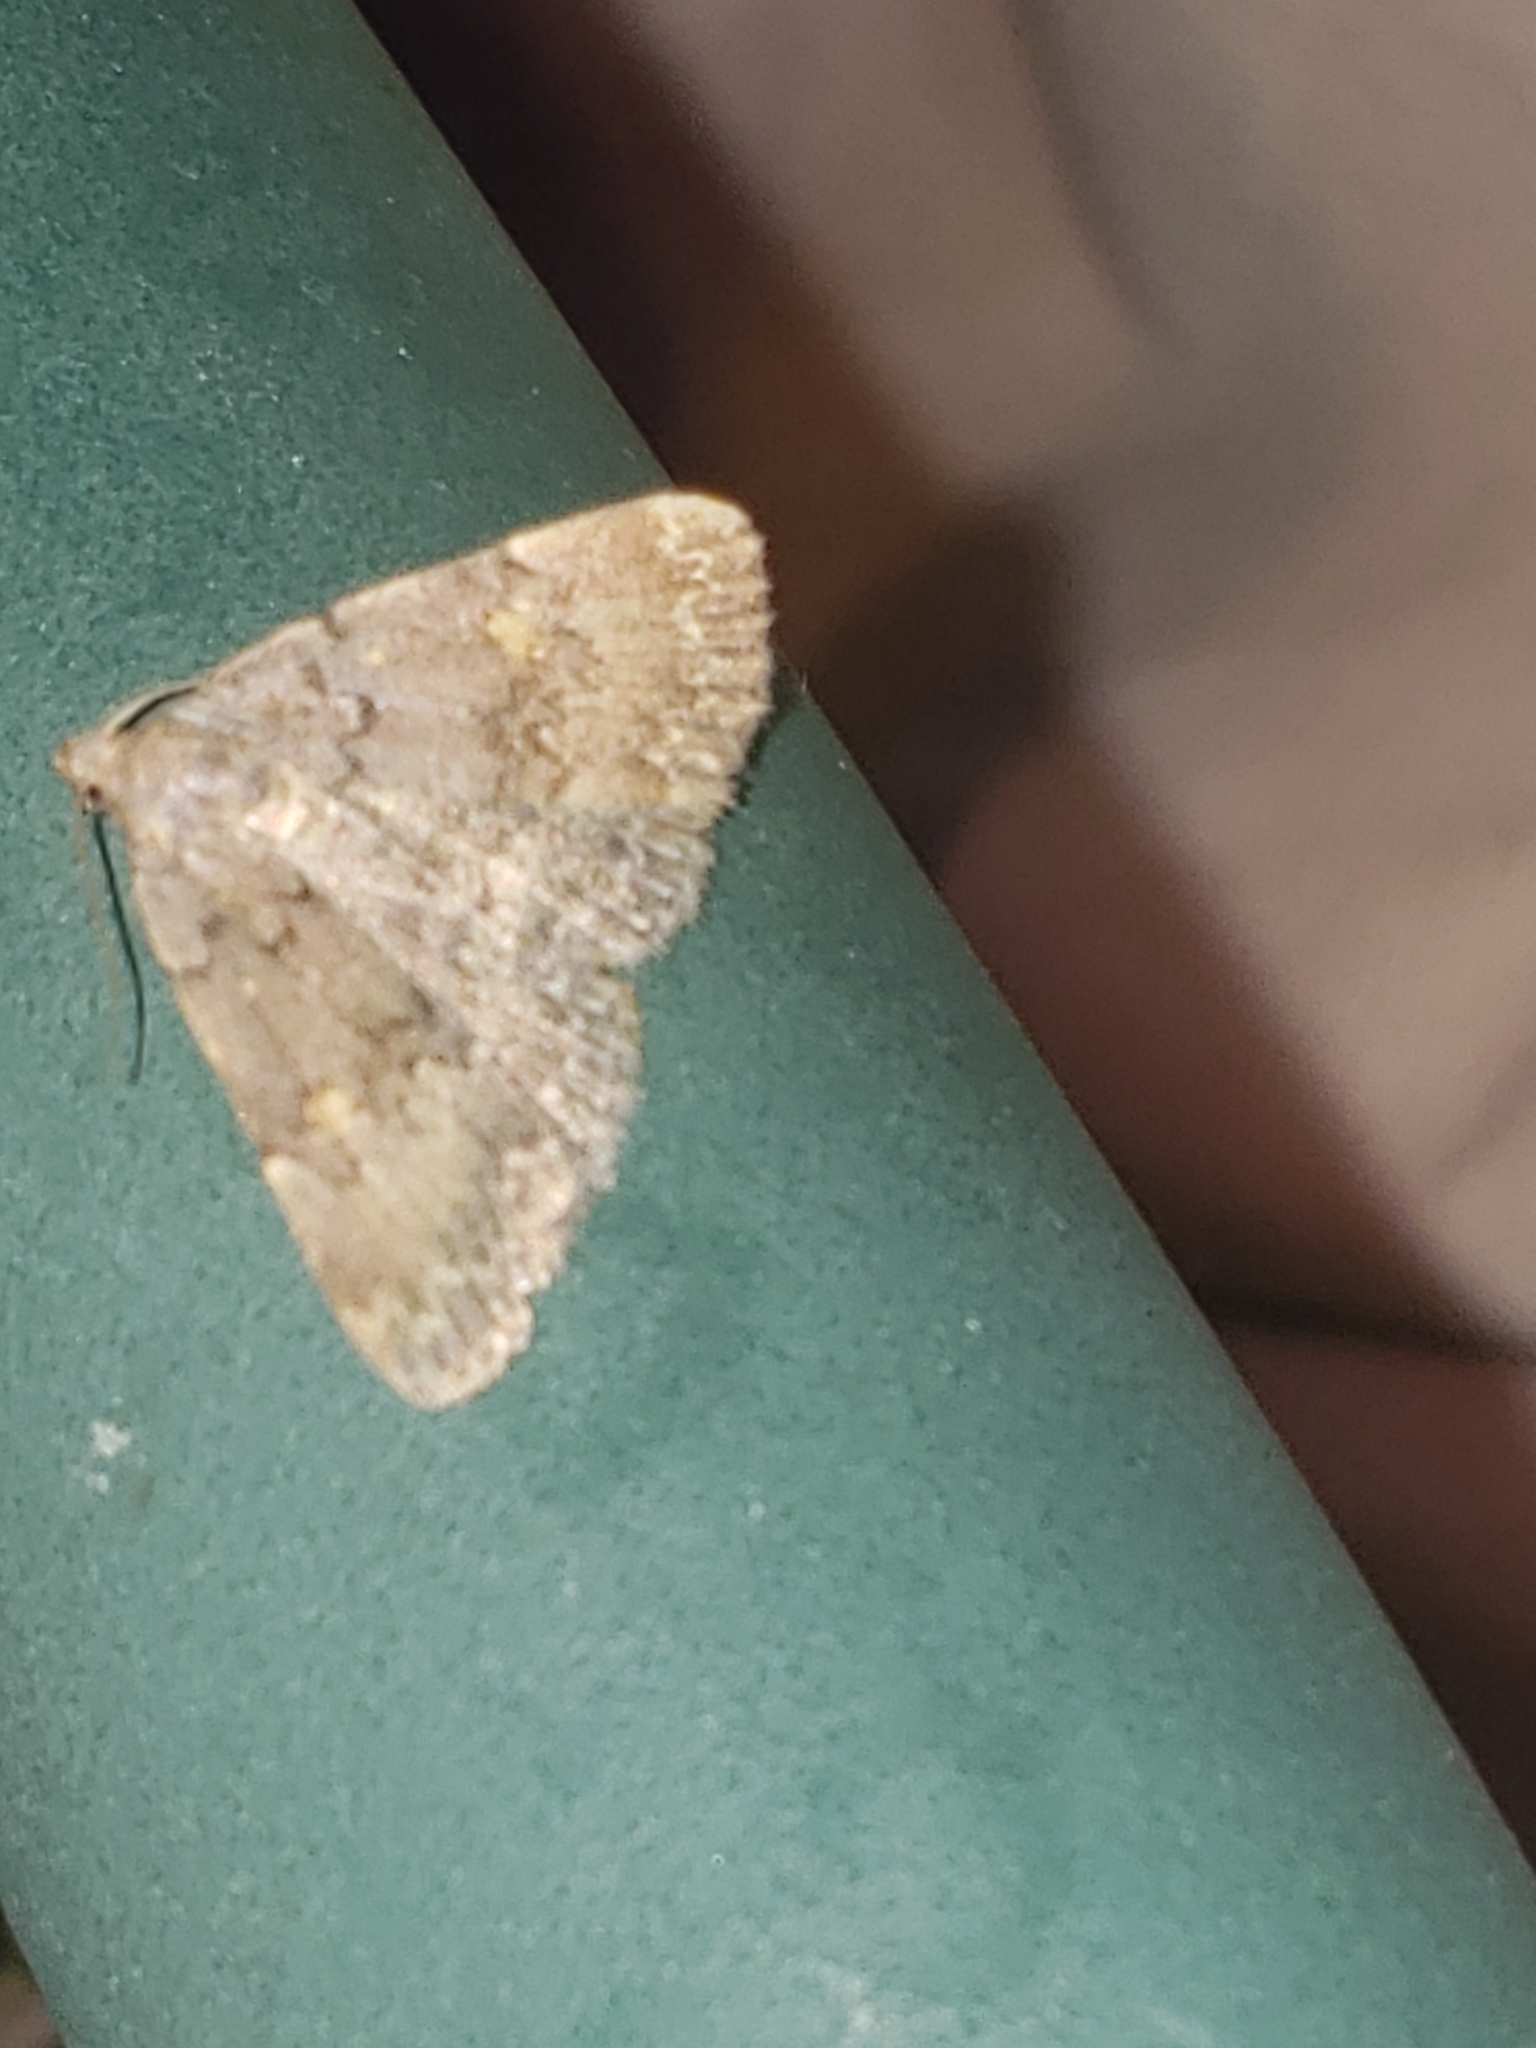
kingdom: Animalia
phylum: Arthropoda
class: Insecta
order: Lepidoptera
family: Erebidae
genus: Idia
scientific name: Idia aemula
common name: Common idia moth
